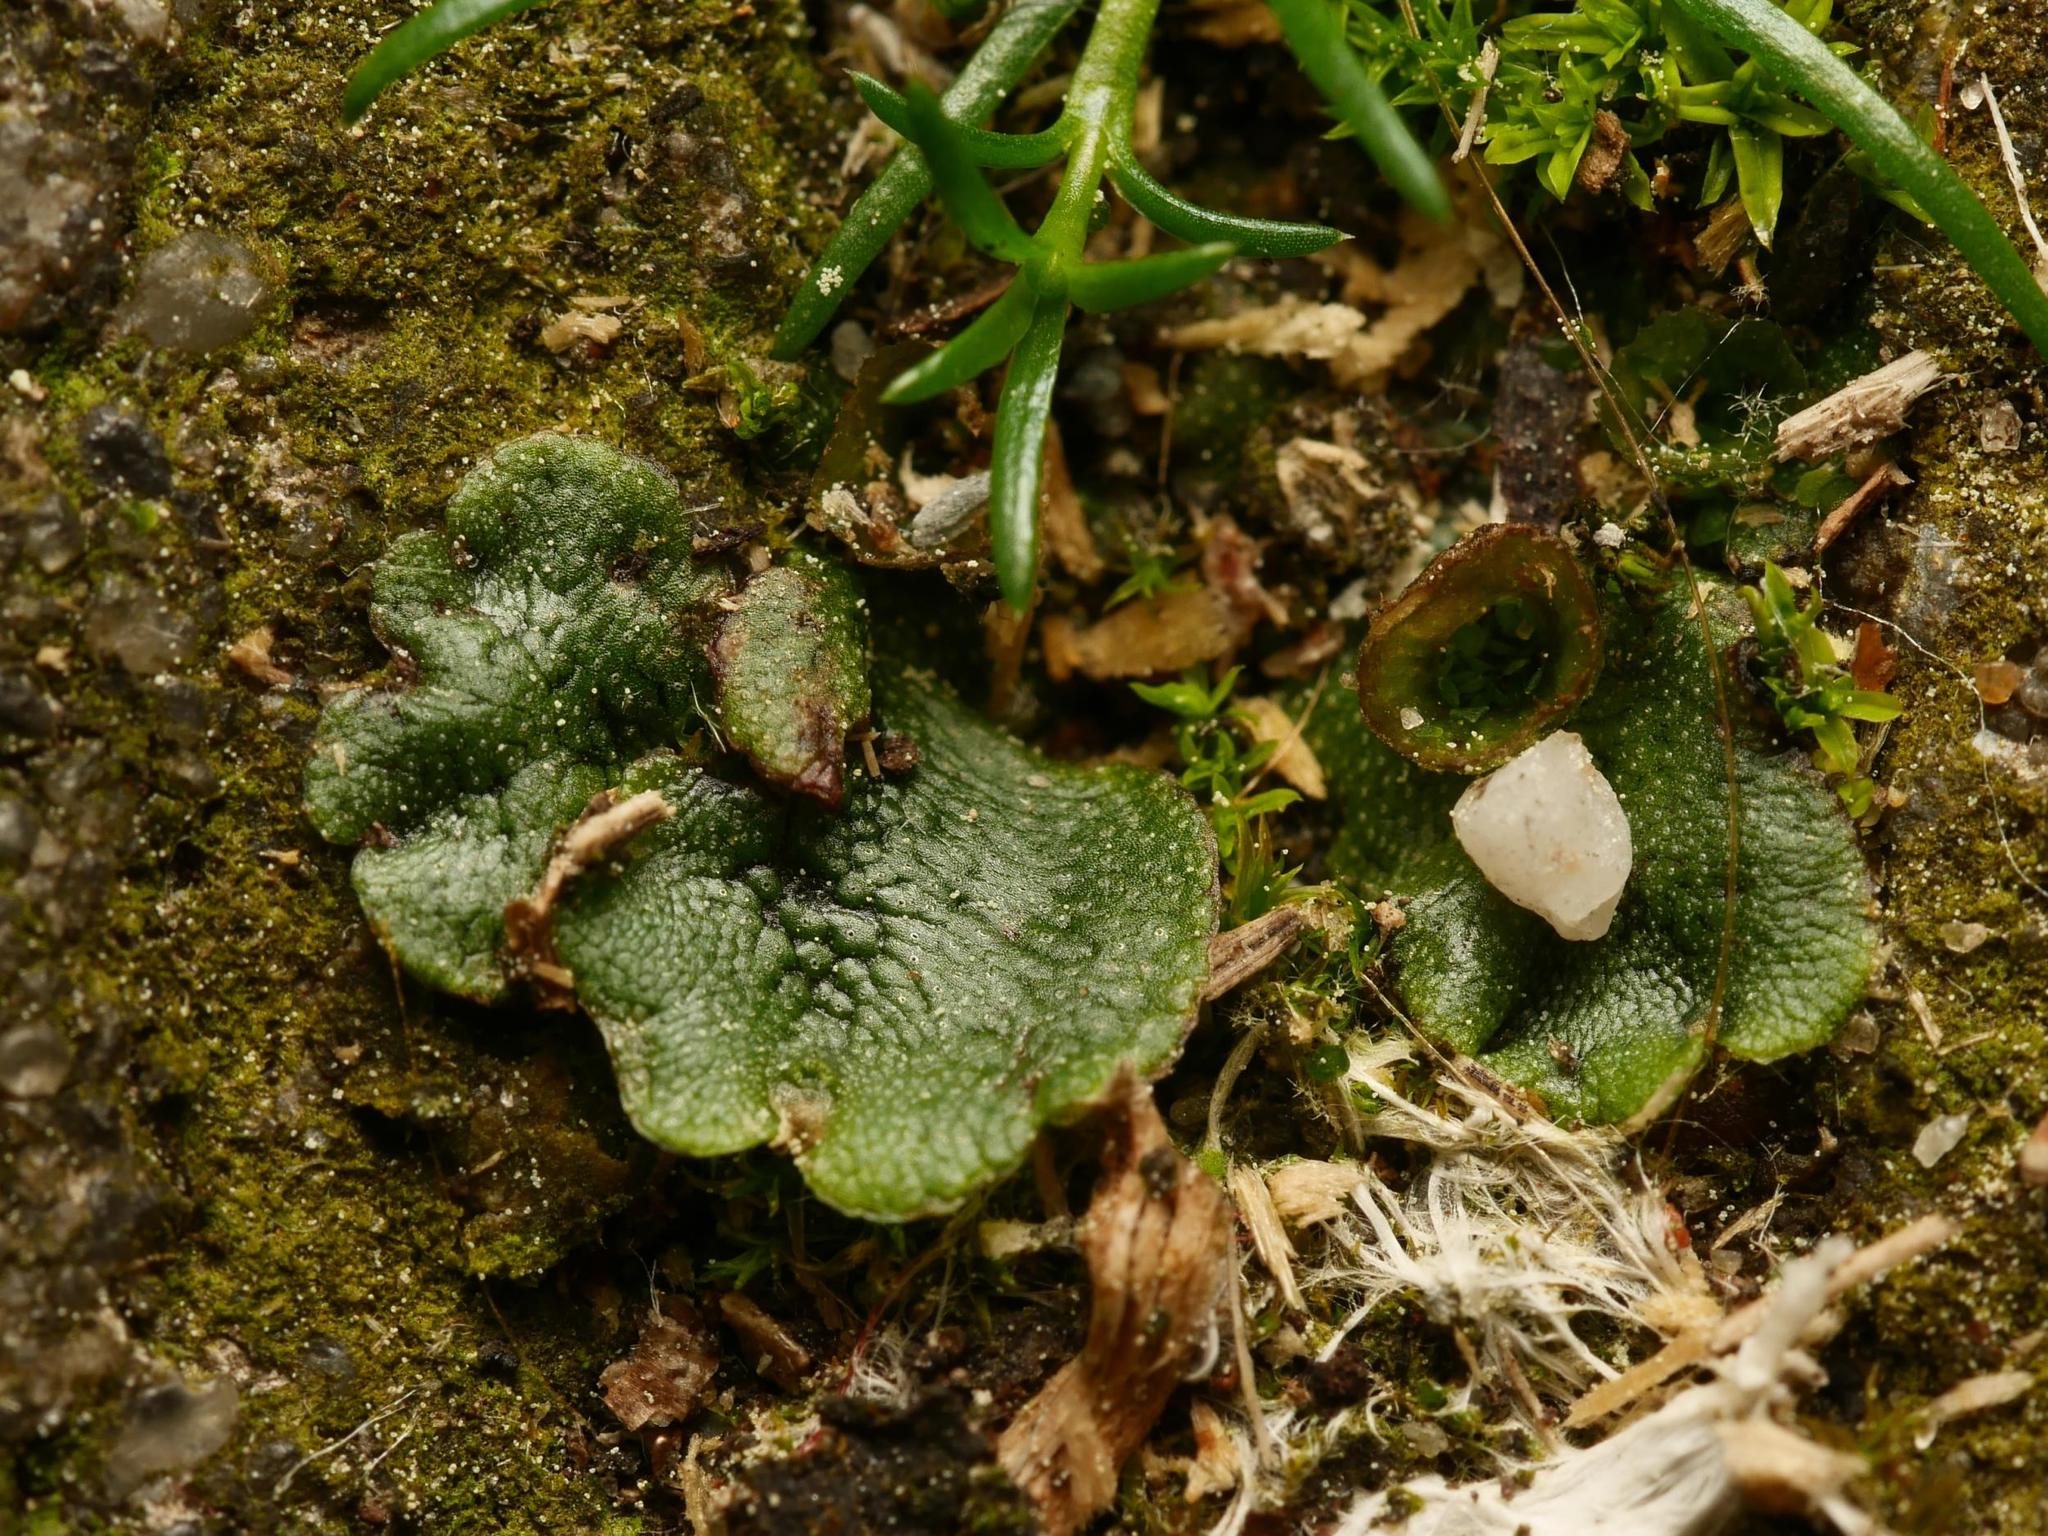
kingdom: Plantae
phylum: Marchantiophyta
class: Marchantiopsida
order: Marchantiales
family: Marchantiaceae
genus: Marchantia
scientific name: Marchantia polymorpha
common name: Common liverwort
